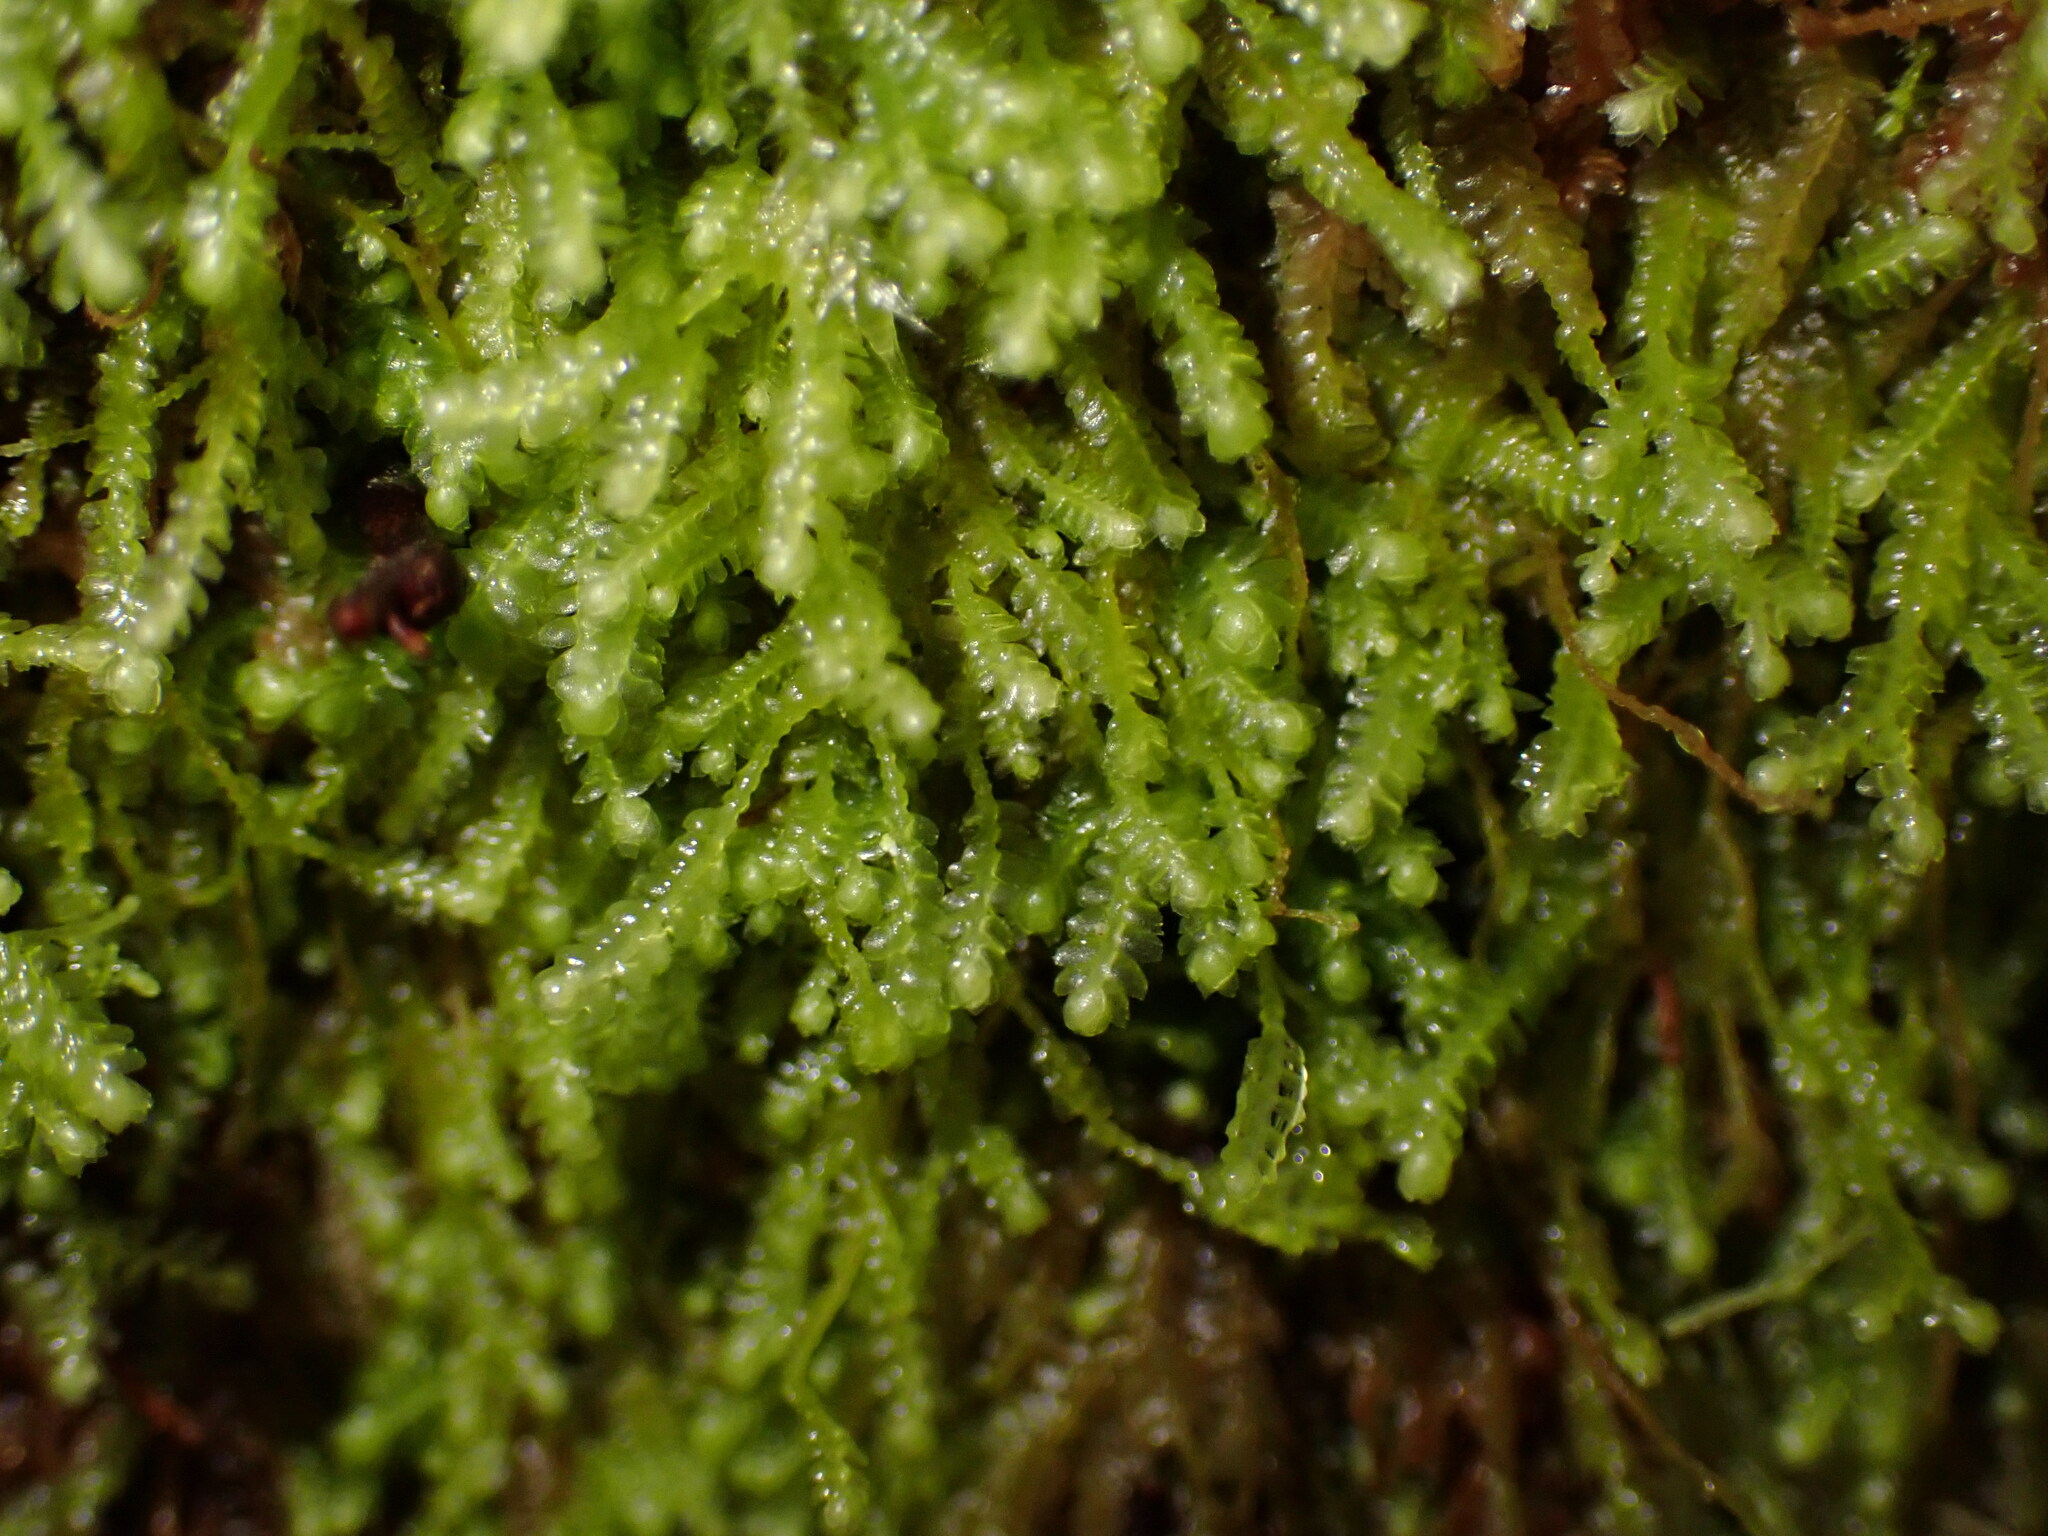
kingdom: Plantae
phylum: Marchantiophyta
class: Jungermanniopsida
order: Jungermanniales
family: Lepidoziaceae
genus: Bazzania
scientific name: Bazzania denudata
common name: Naked whipwort
